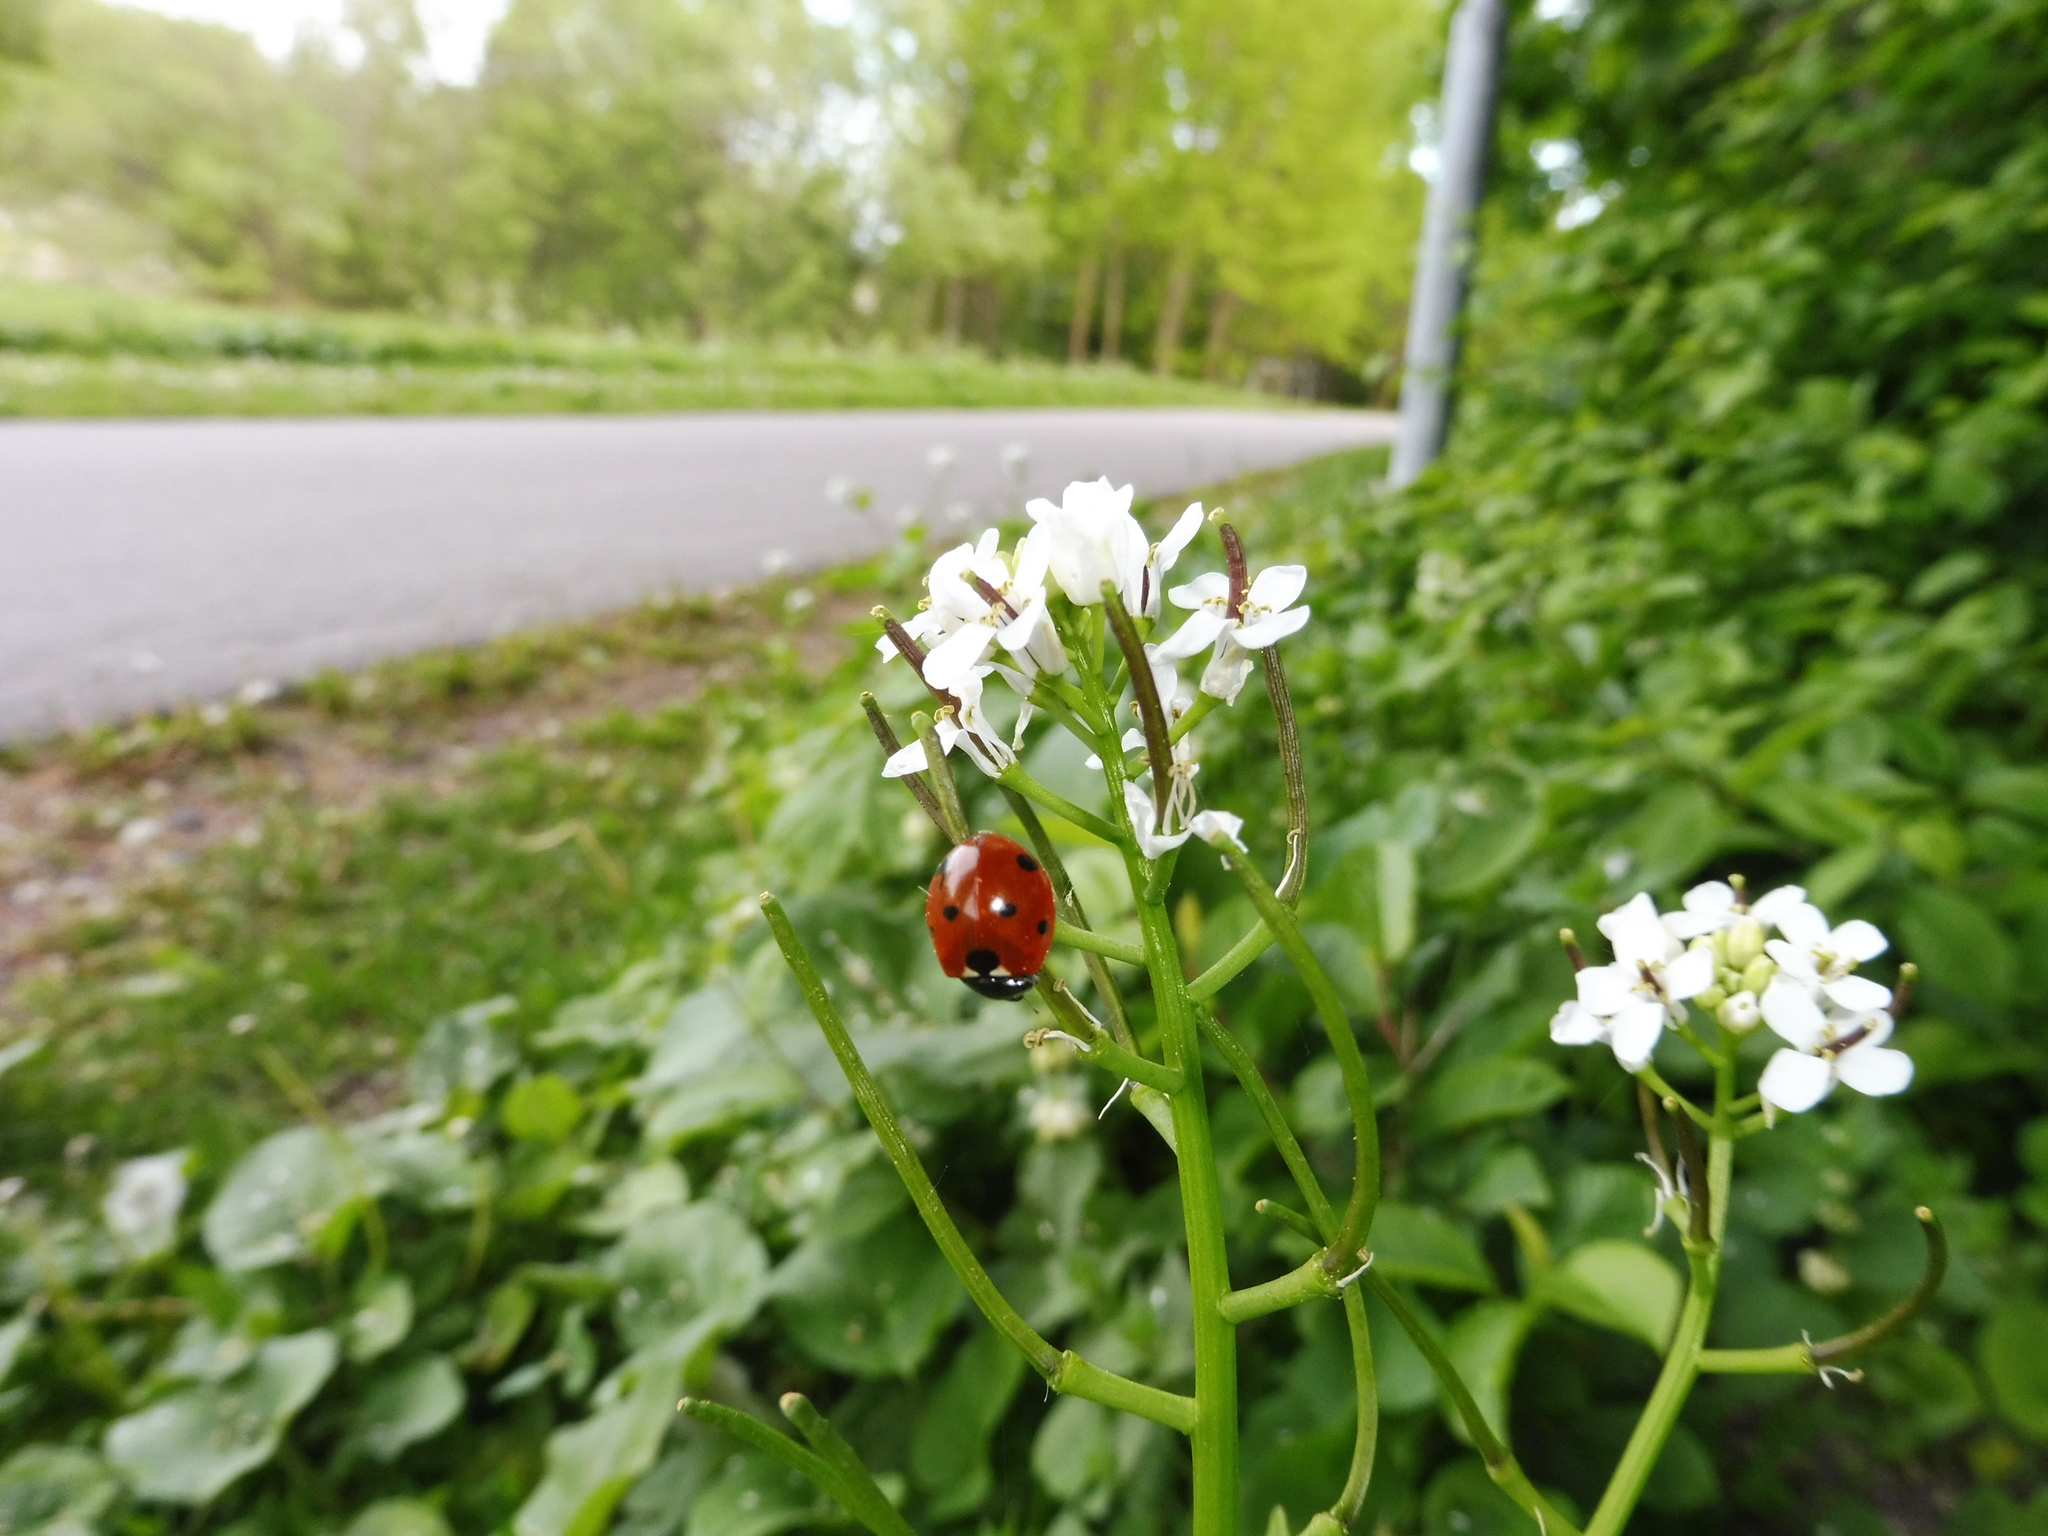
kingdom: Animalia
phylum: Arthropoda
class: Insecta
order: Coleoptera
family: Coccinellidae
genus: Coccinella
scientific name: Coccinella septempunctata
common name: Sevenspotted lady beetle
